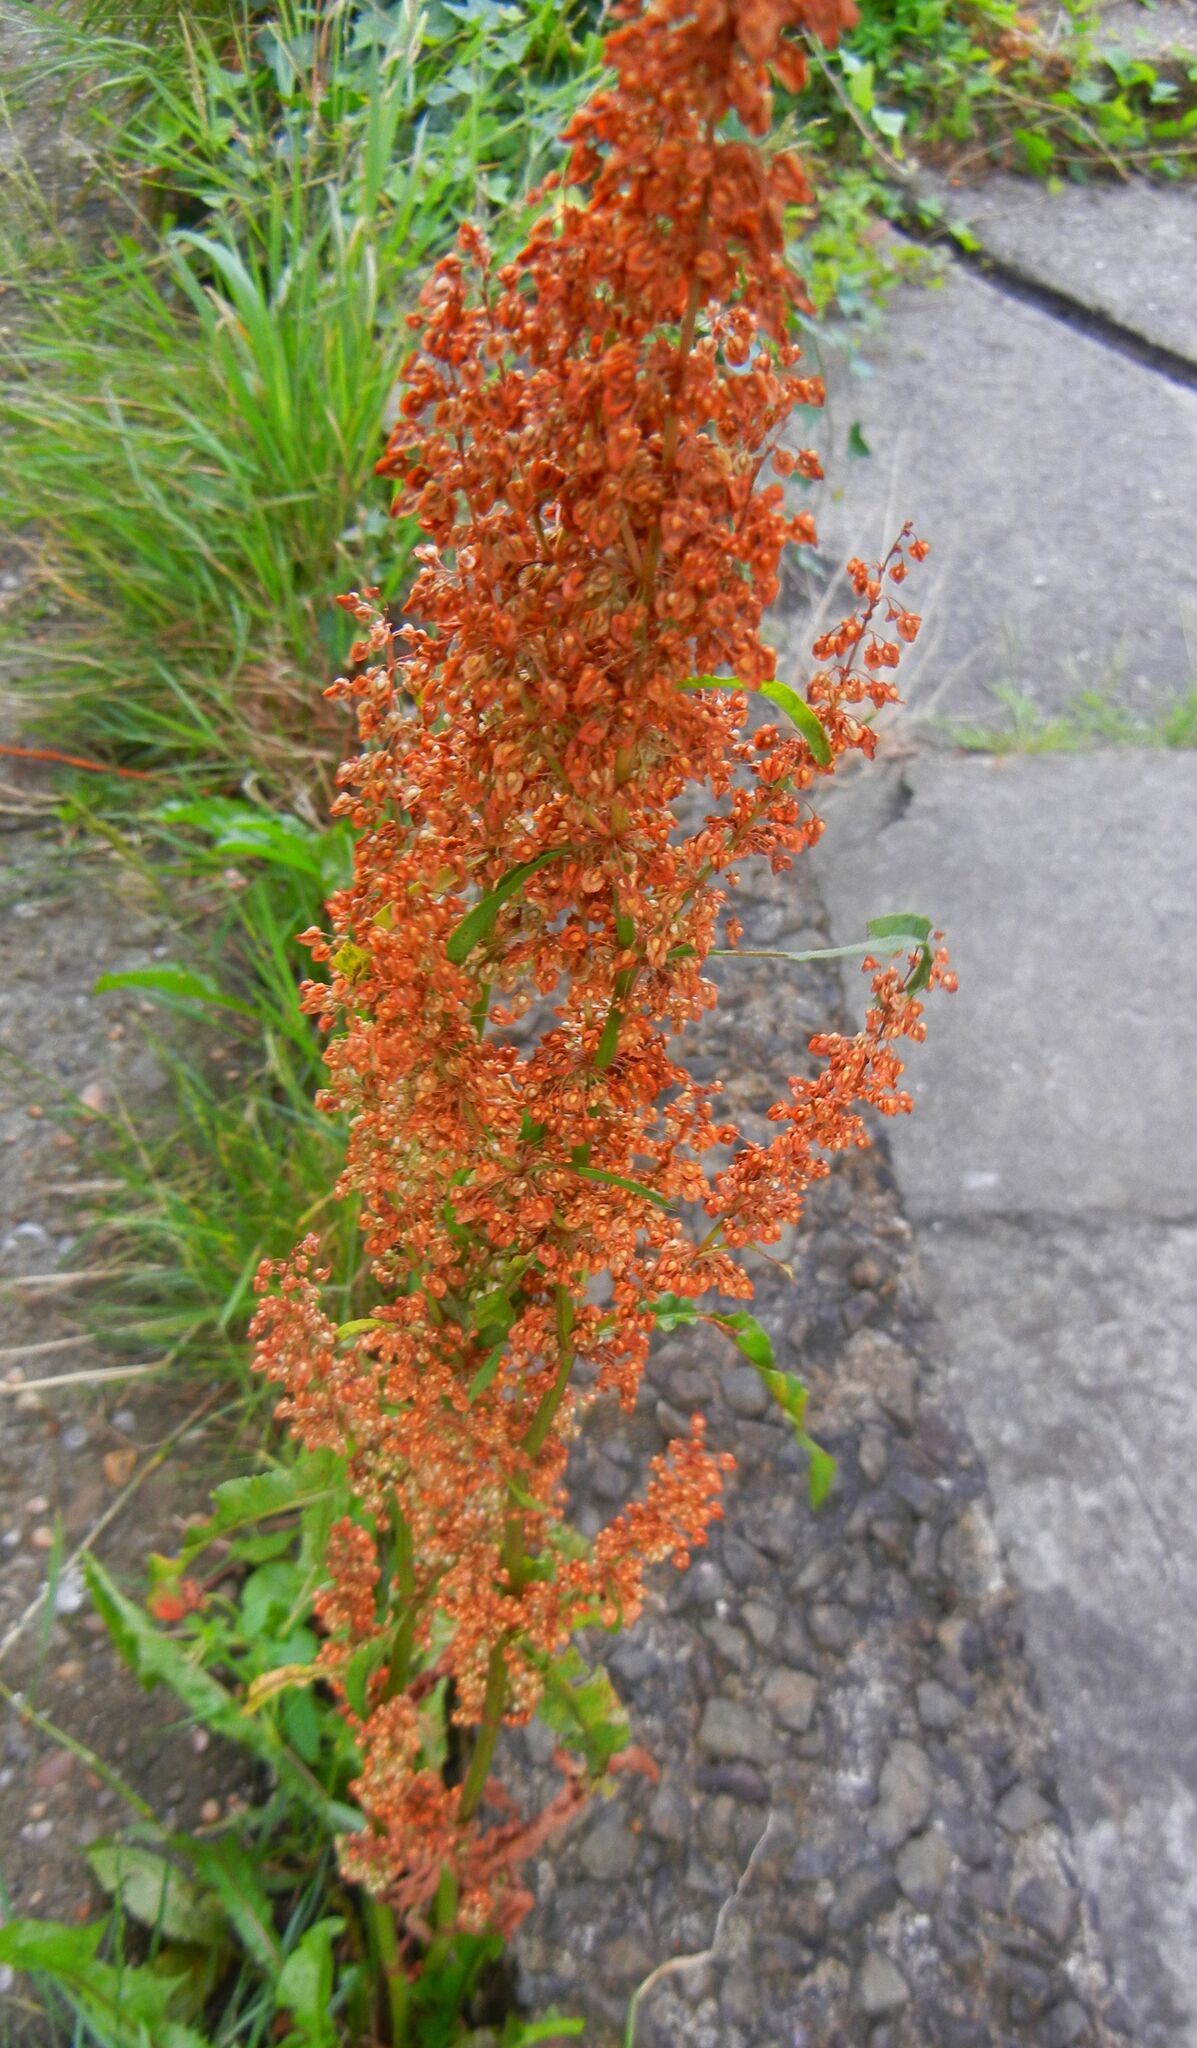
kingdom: Plantae
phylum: Tracheophyta
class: Magnoliopsida
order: Caryophyllales
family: Polygonaceae
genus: Rumex
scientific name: Rumex crispus
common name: Curled dock
